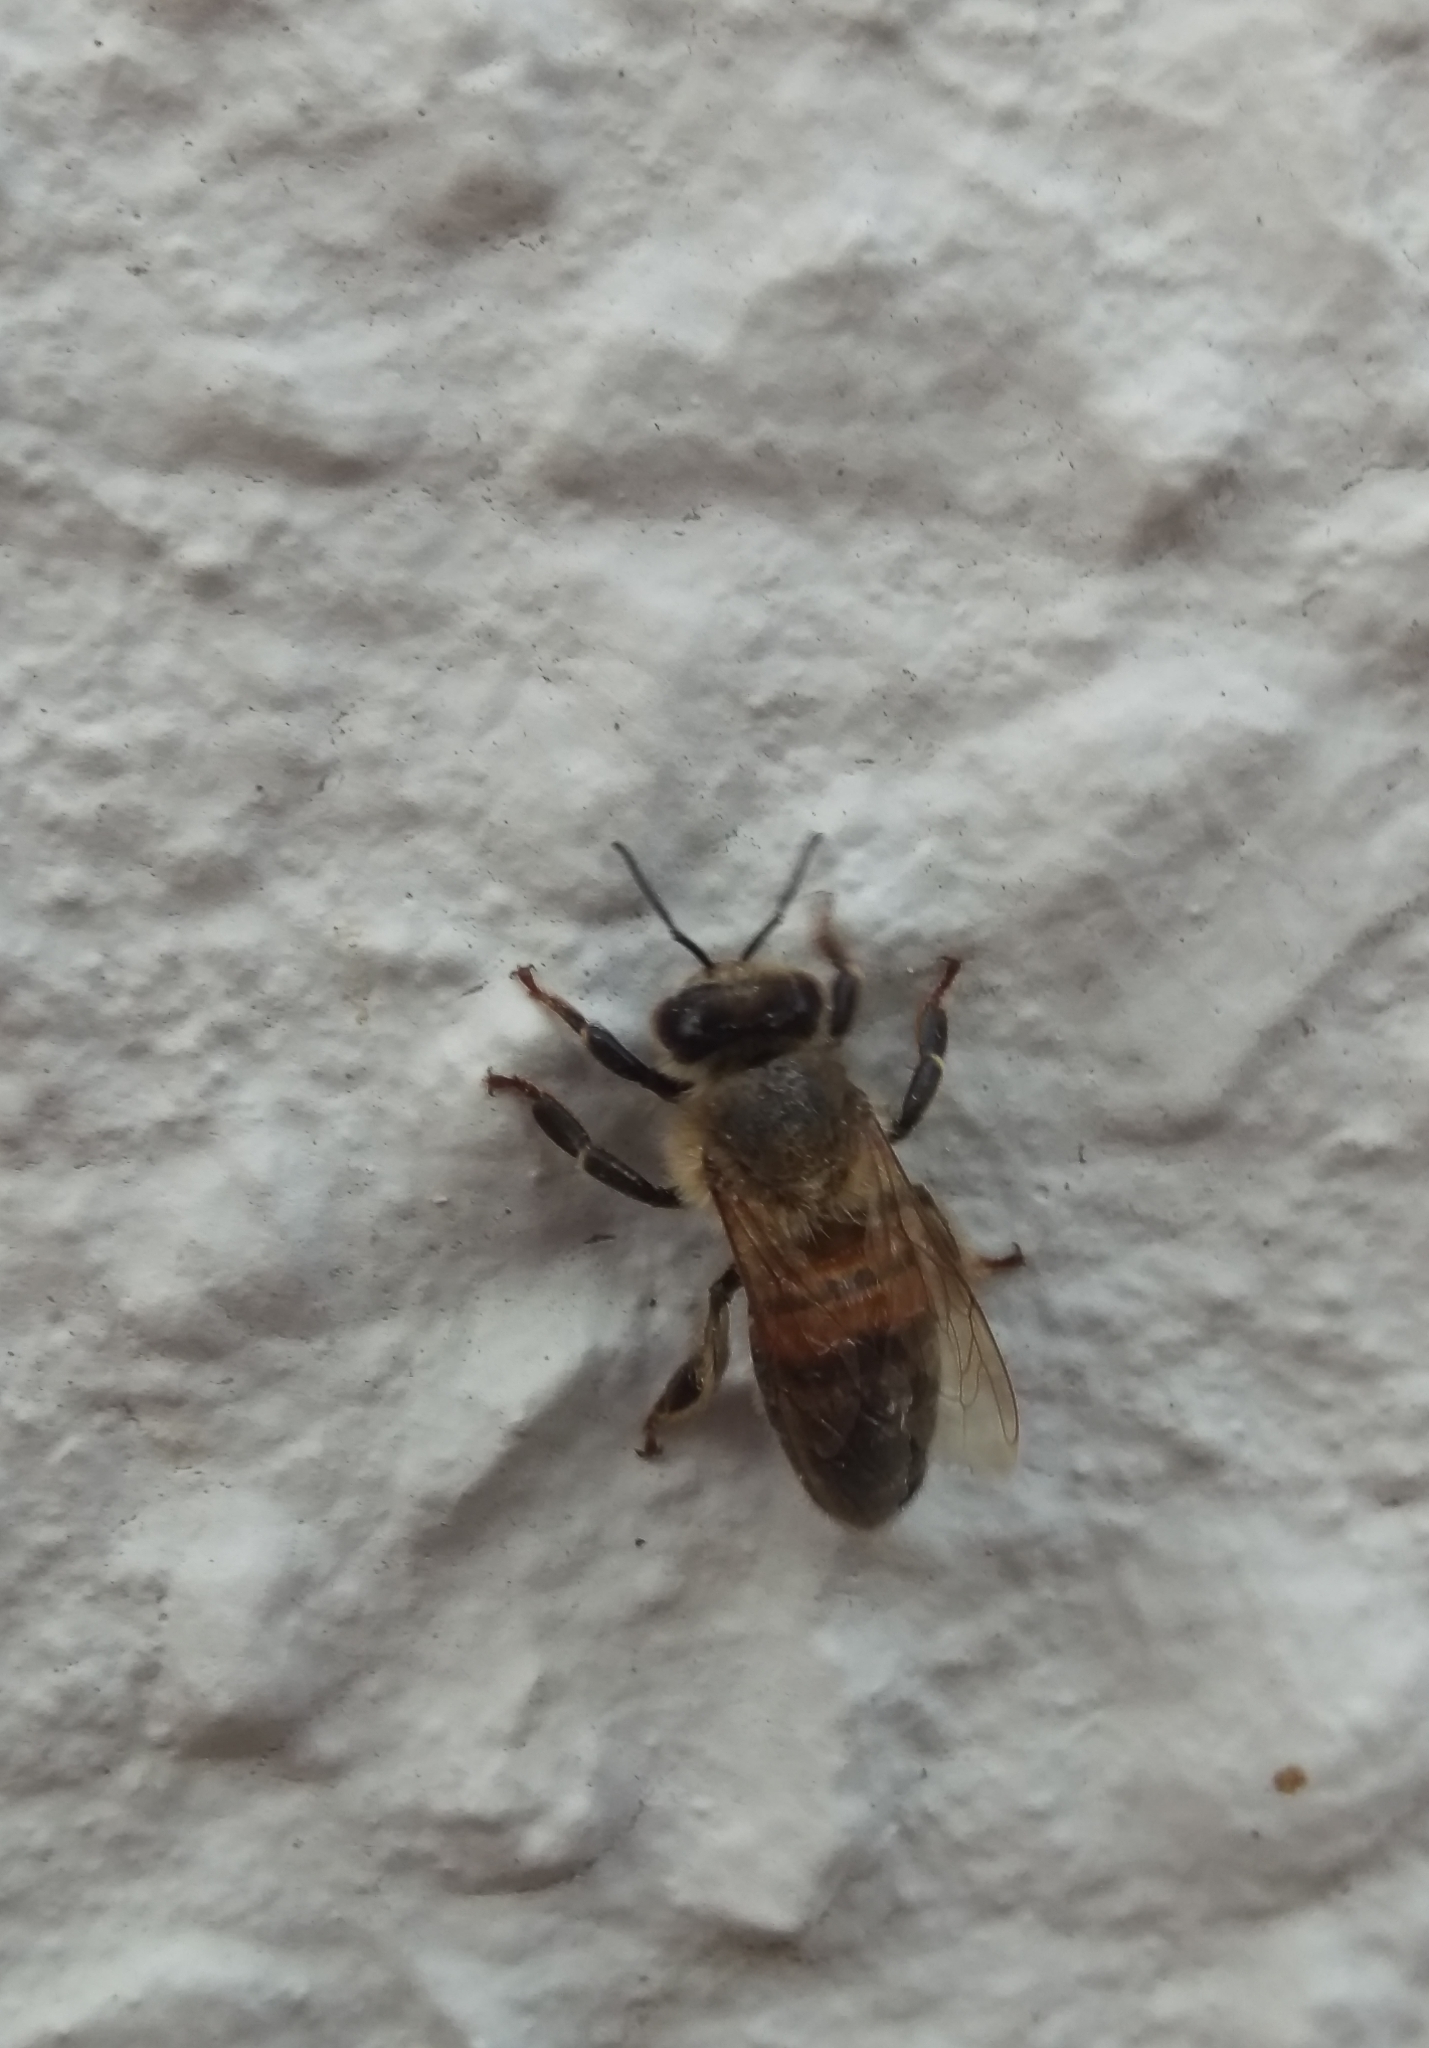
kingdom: Animalia
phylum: Arthropoda
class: Insecta
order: Hymenoptera
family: Apidae
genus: Apis
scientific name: Apis mellifera
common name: Honey bee
